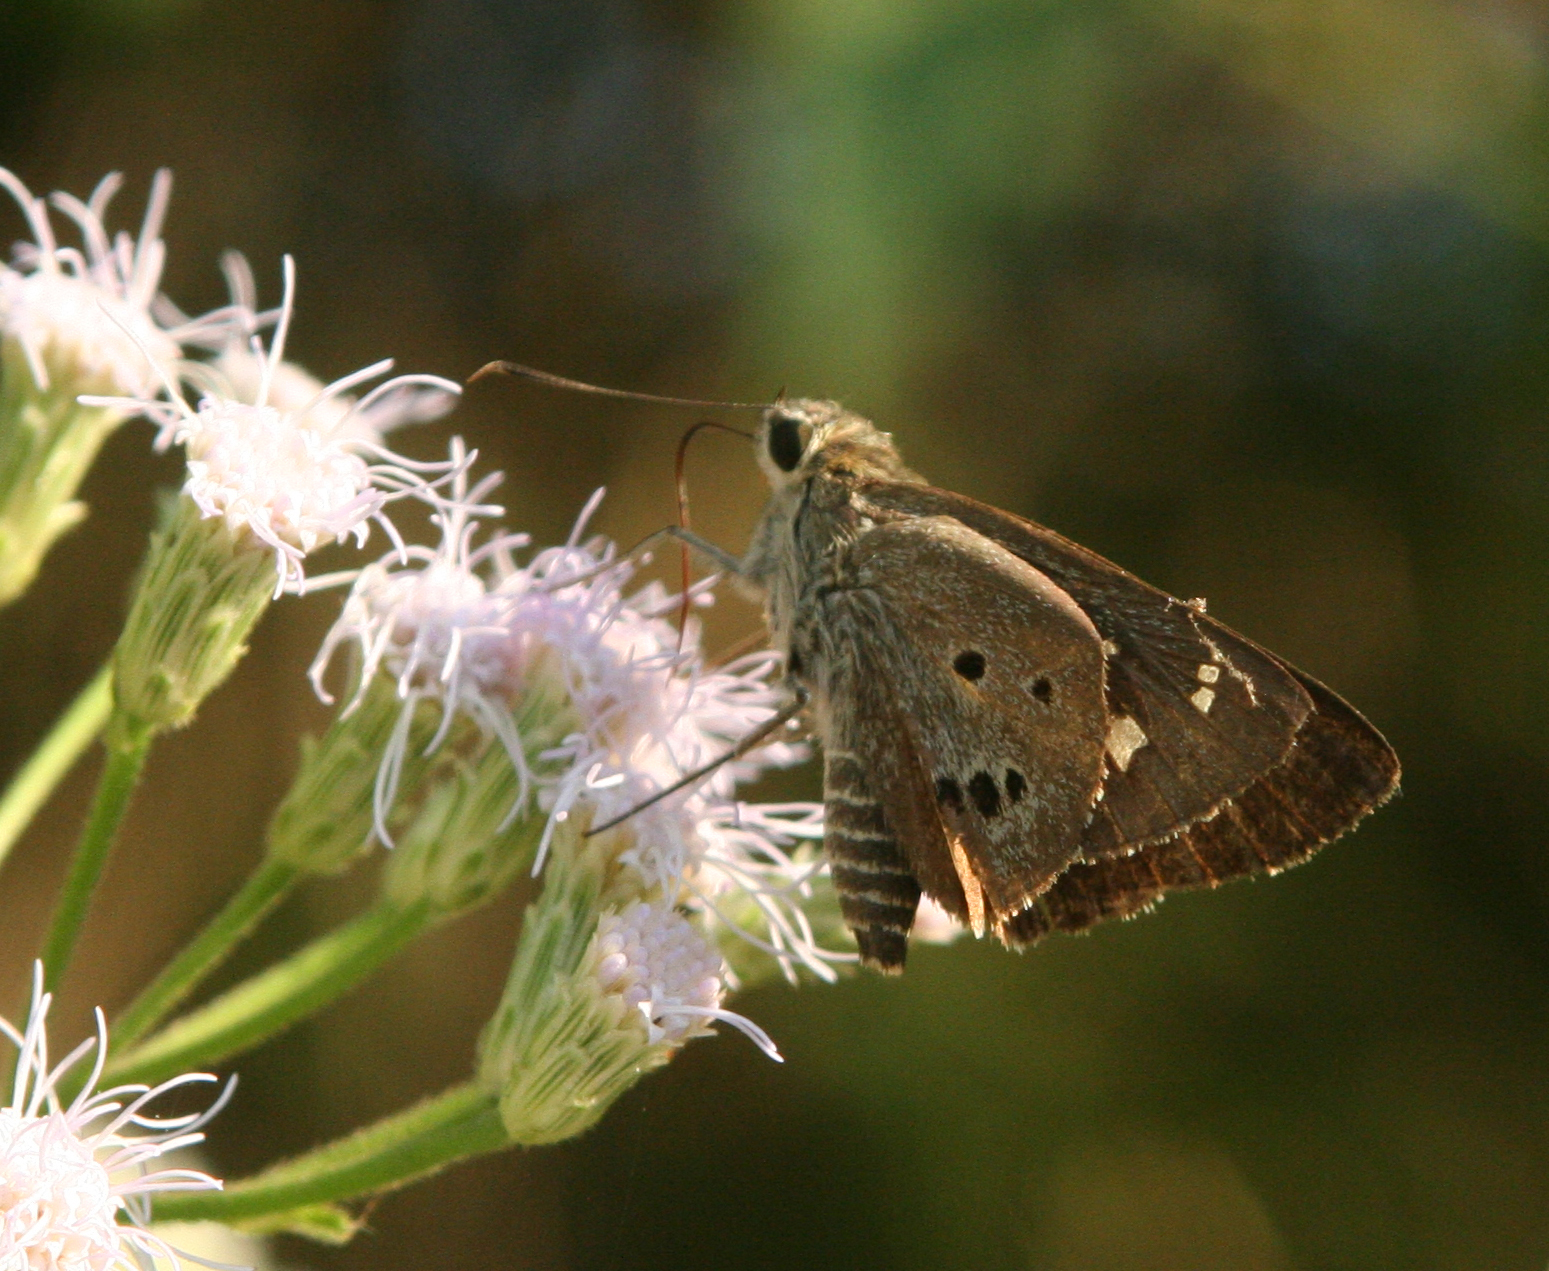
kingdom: Animalia
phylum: Arthropoda
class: Insecta
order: Lepidoptera
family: Hesperiidae
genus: Suastus
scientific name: Suastus gremius
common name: Indian palm bob
